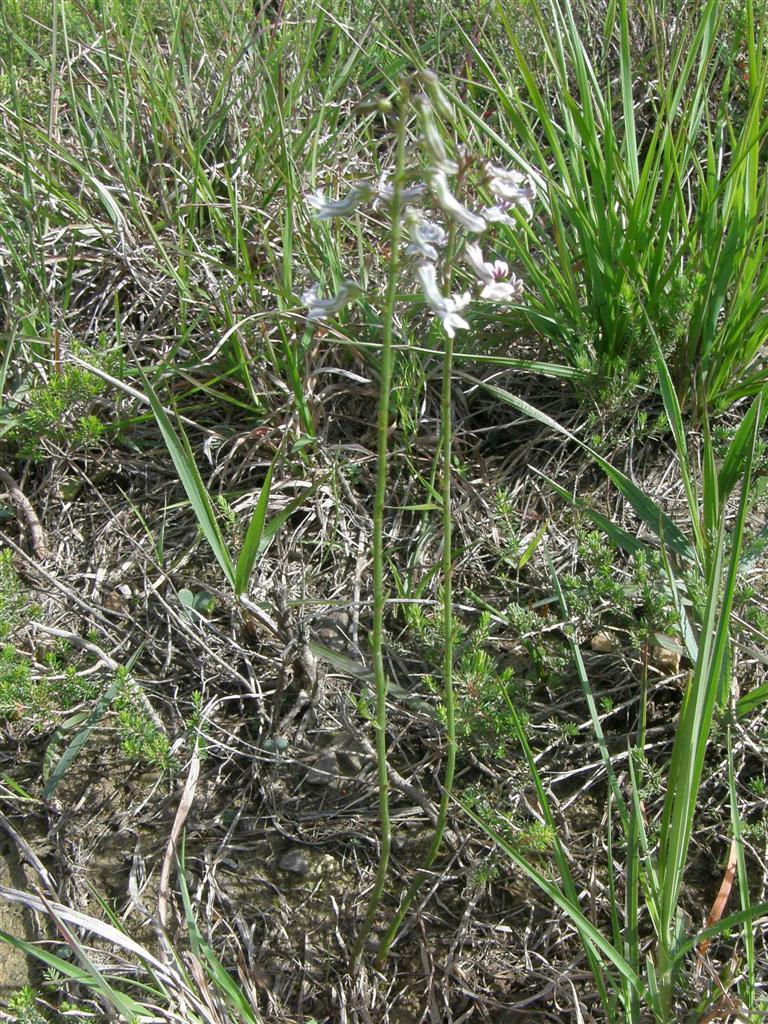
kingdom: Plantae
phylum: Tracheophyta
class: Magnoliopsida
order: Asterales
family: Campanulaceae
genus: Cyphia
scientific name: Cyphia linarioides
